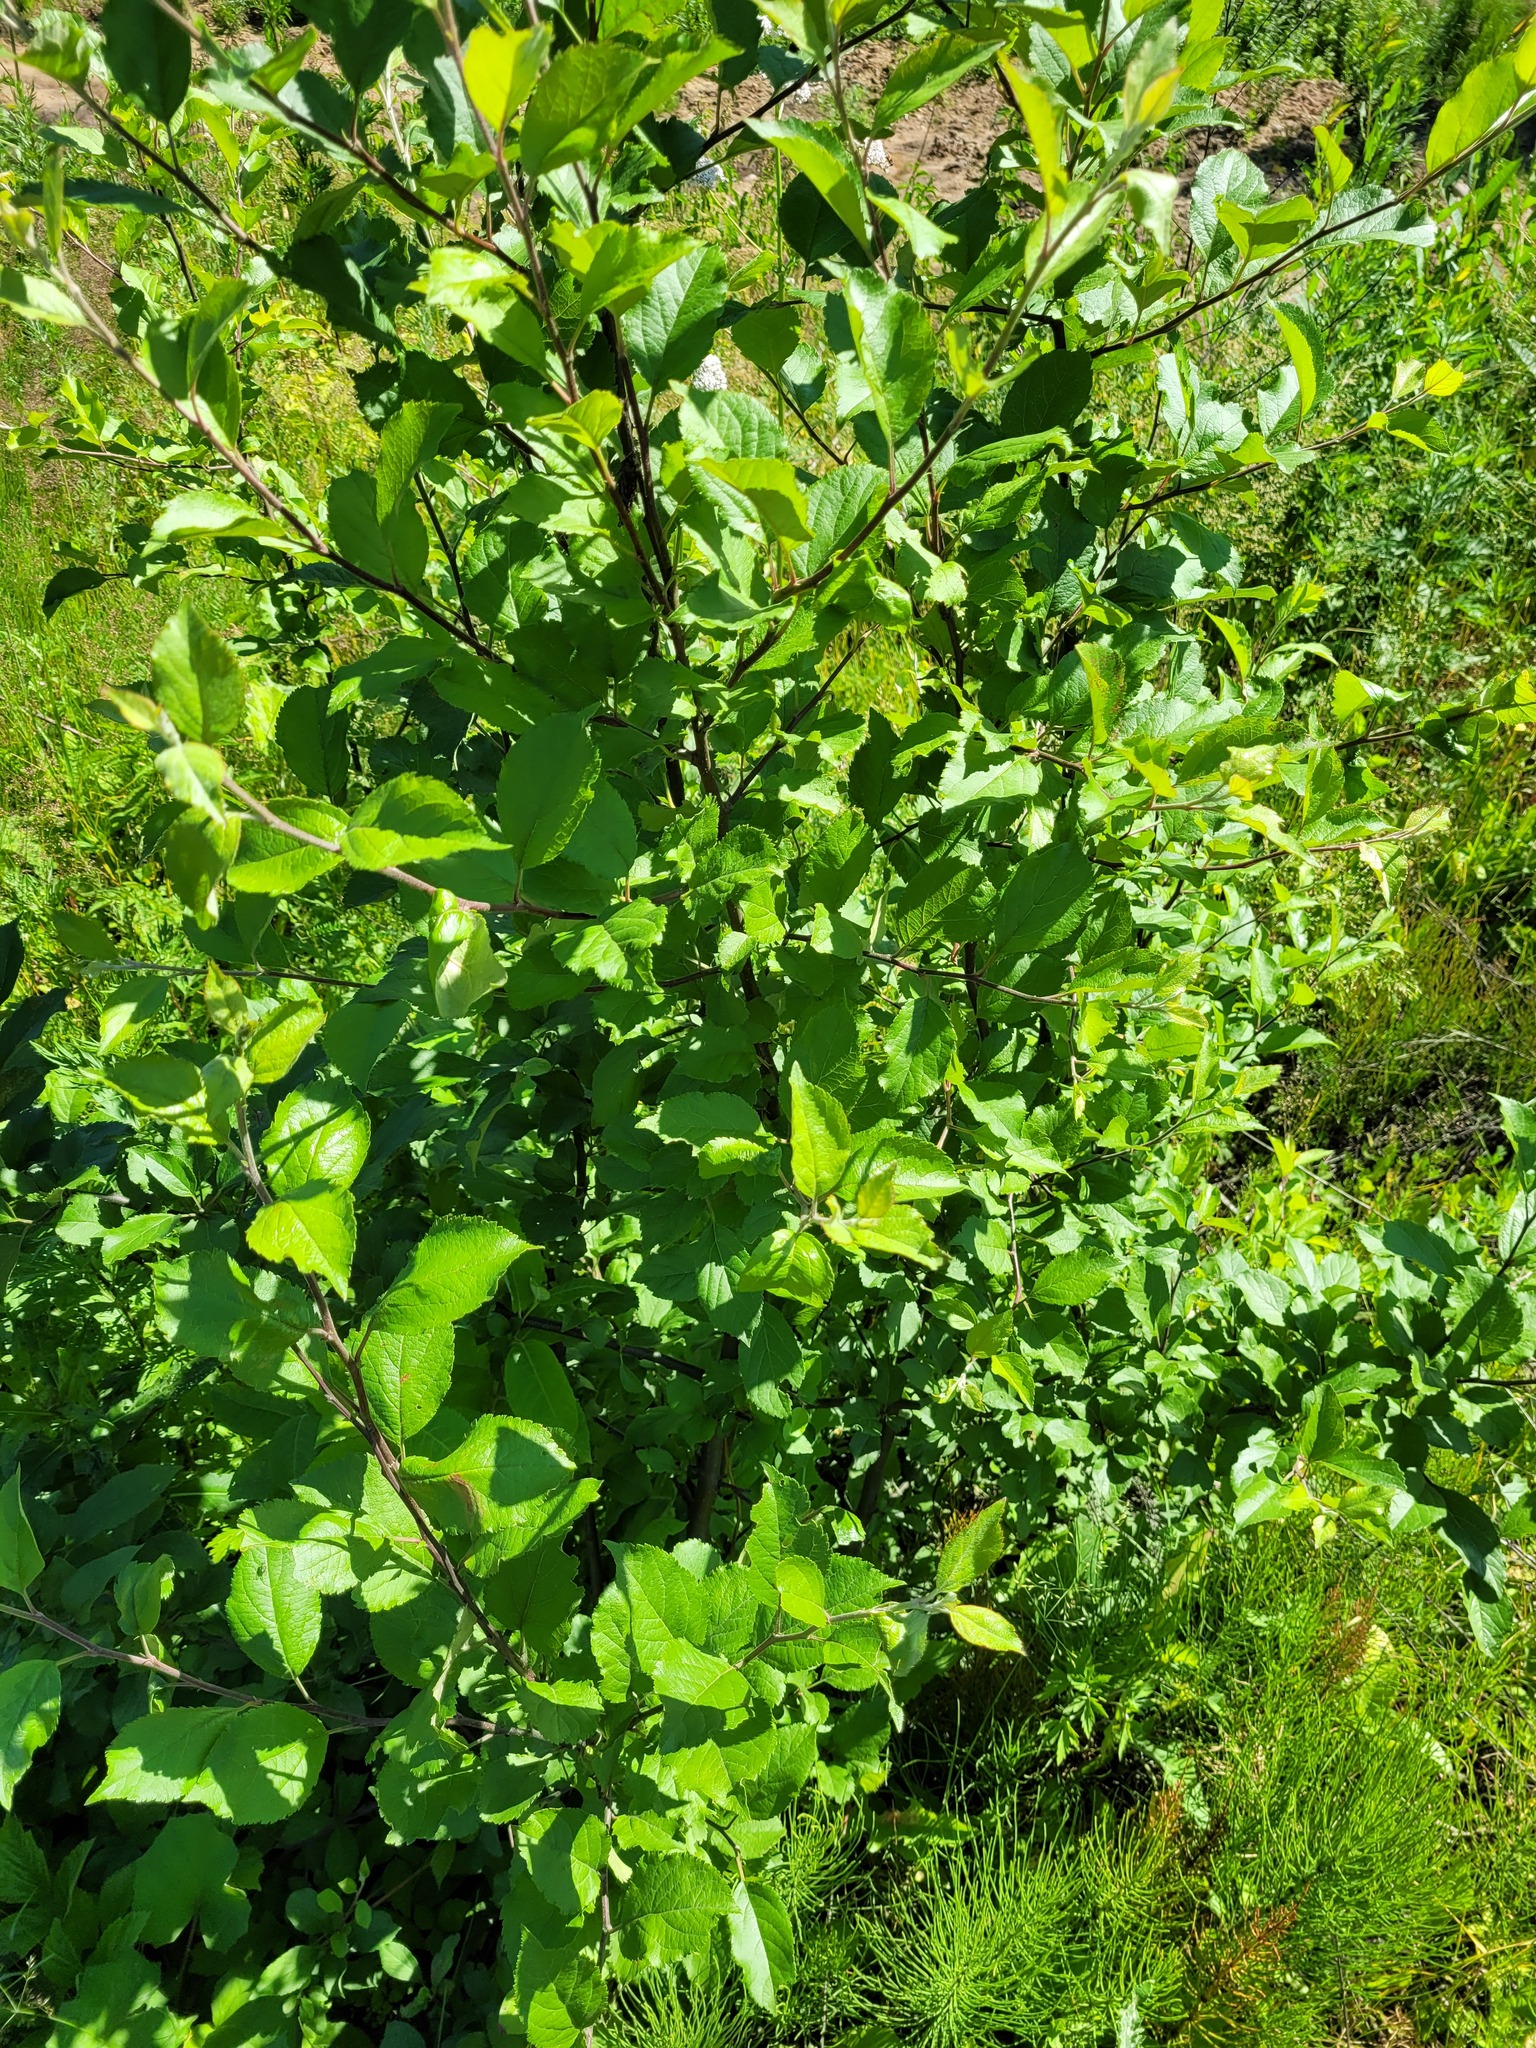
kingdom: Plantae
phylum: Tracheophyta
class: Magnoliopsida
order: Rosales
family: Rosaceae
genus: Malus
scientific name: Malus domestica
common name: Apple
